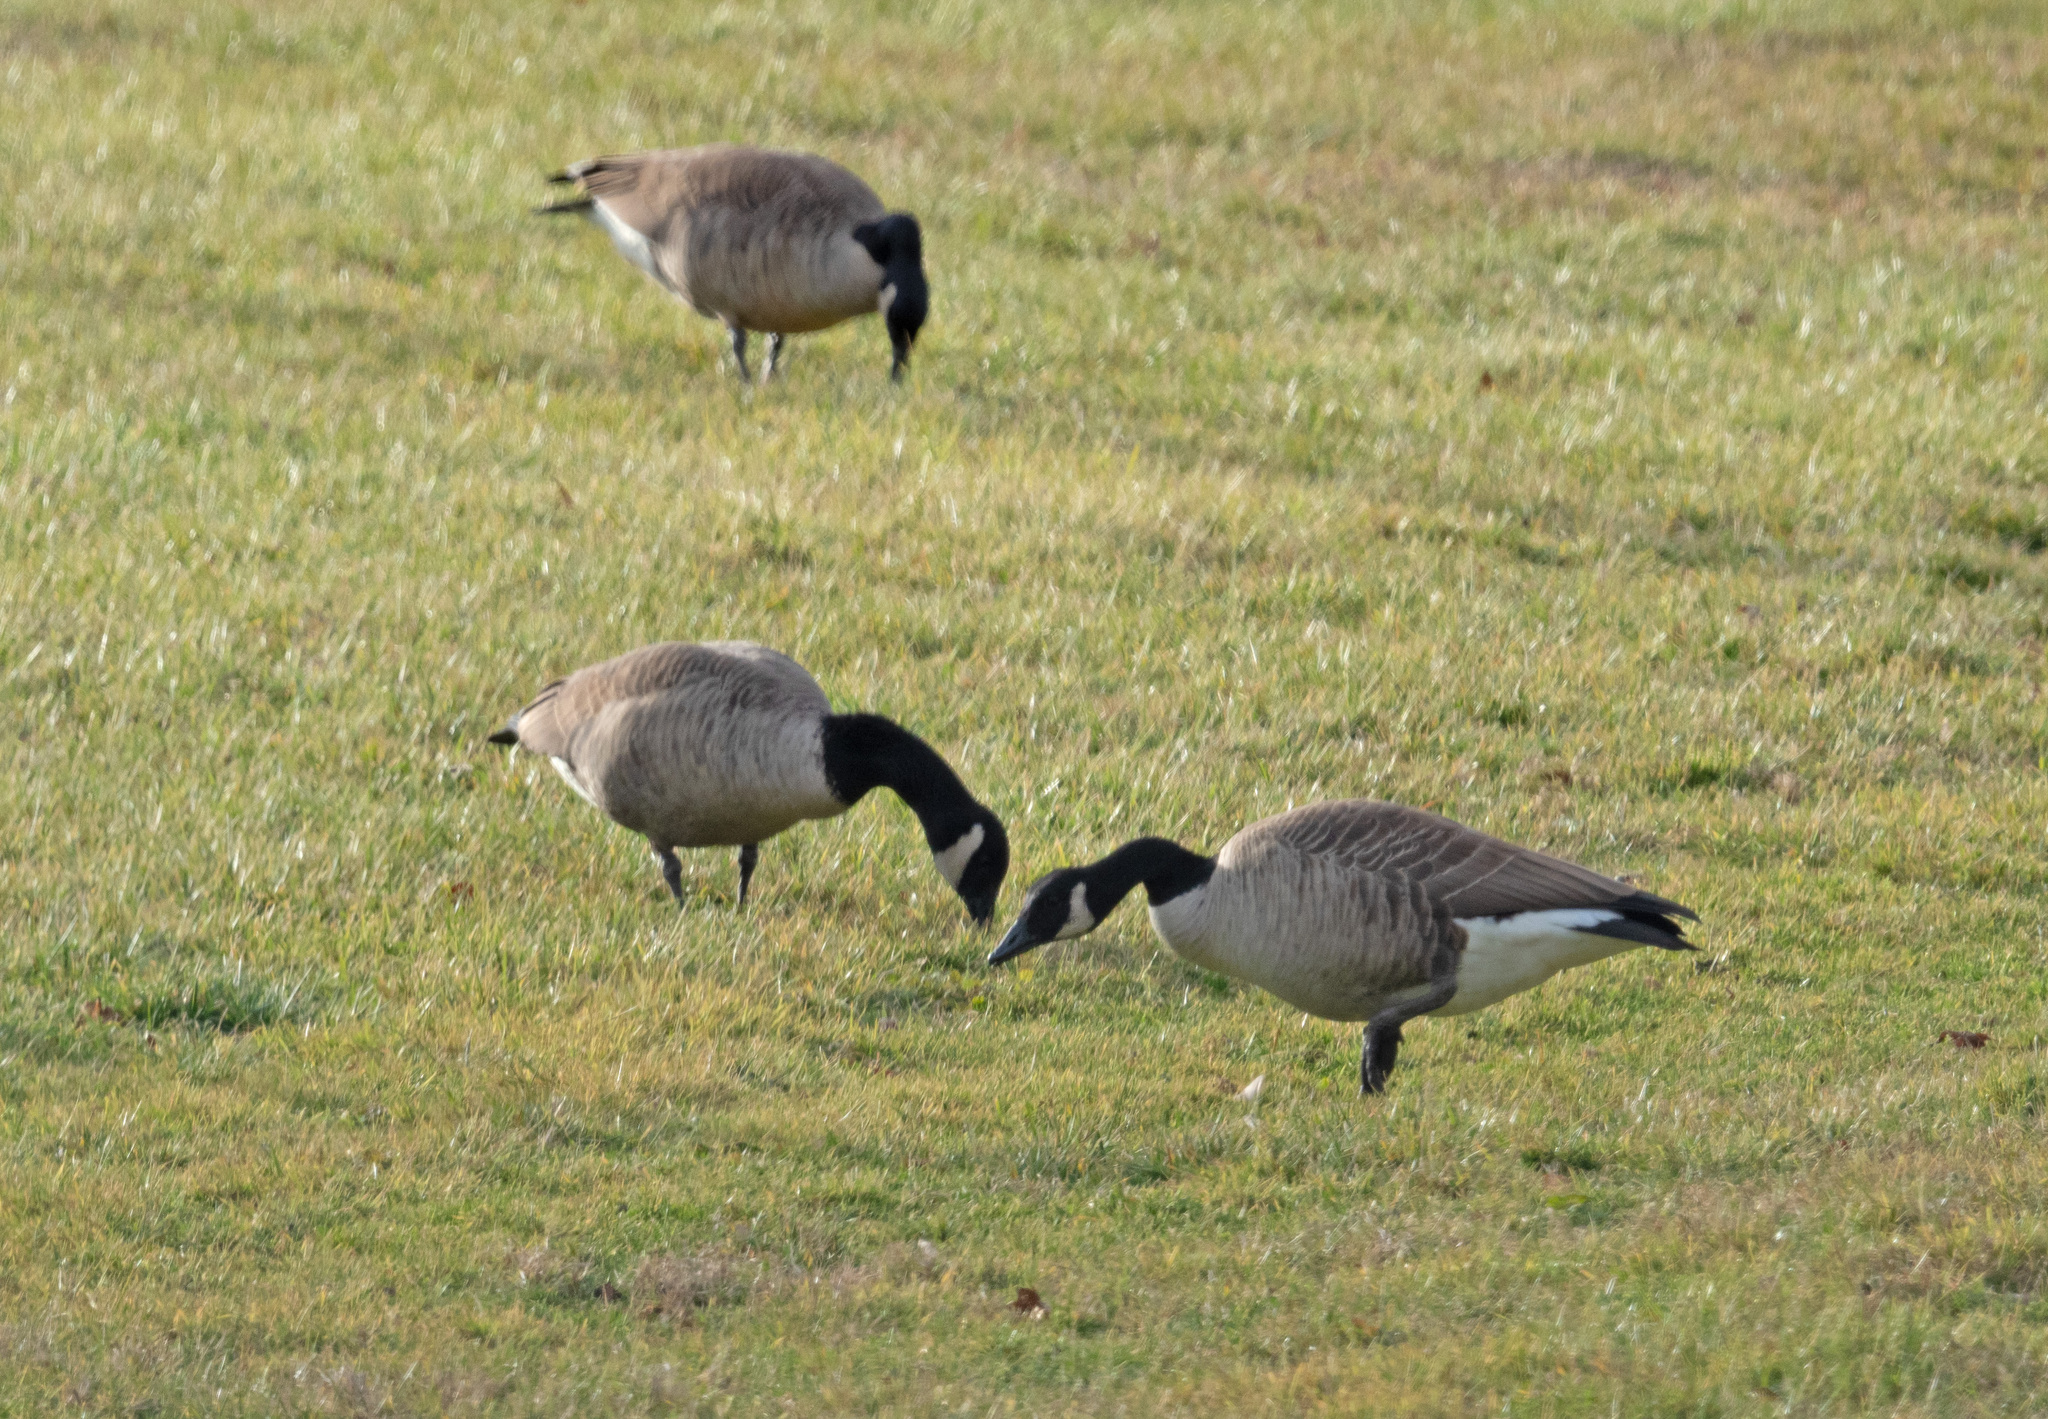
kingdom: Animalia
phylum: Chordata
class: Aves
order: Anseriformes
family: Anatidae
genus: Branta
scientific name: Branta canadensis
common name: Canada goose
